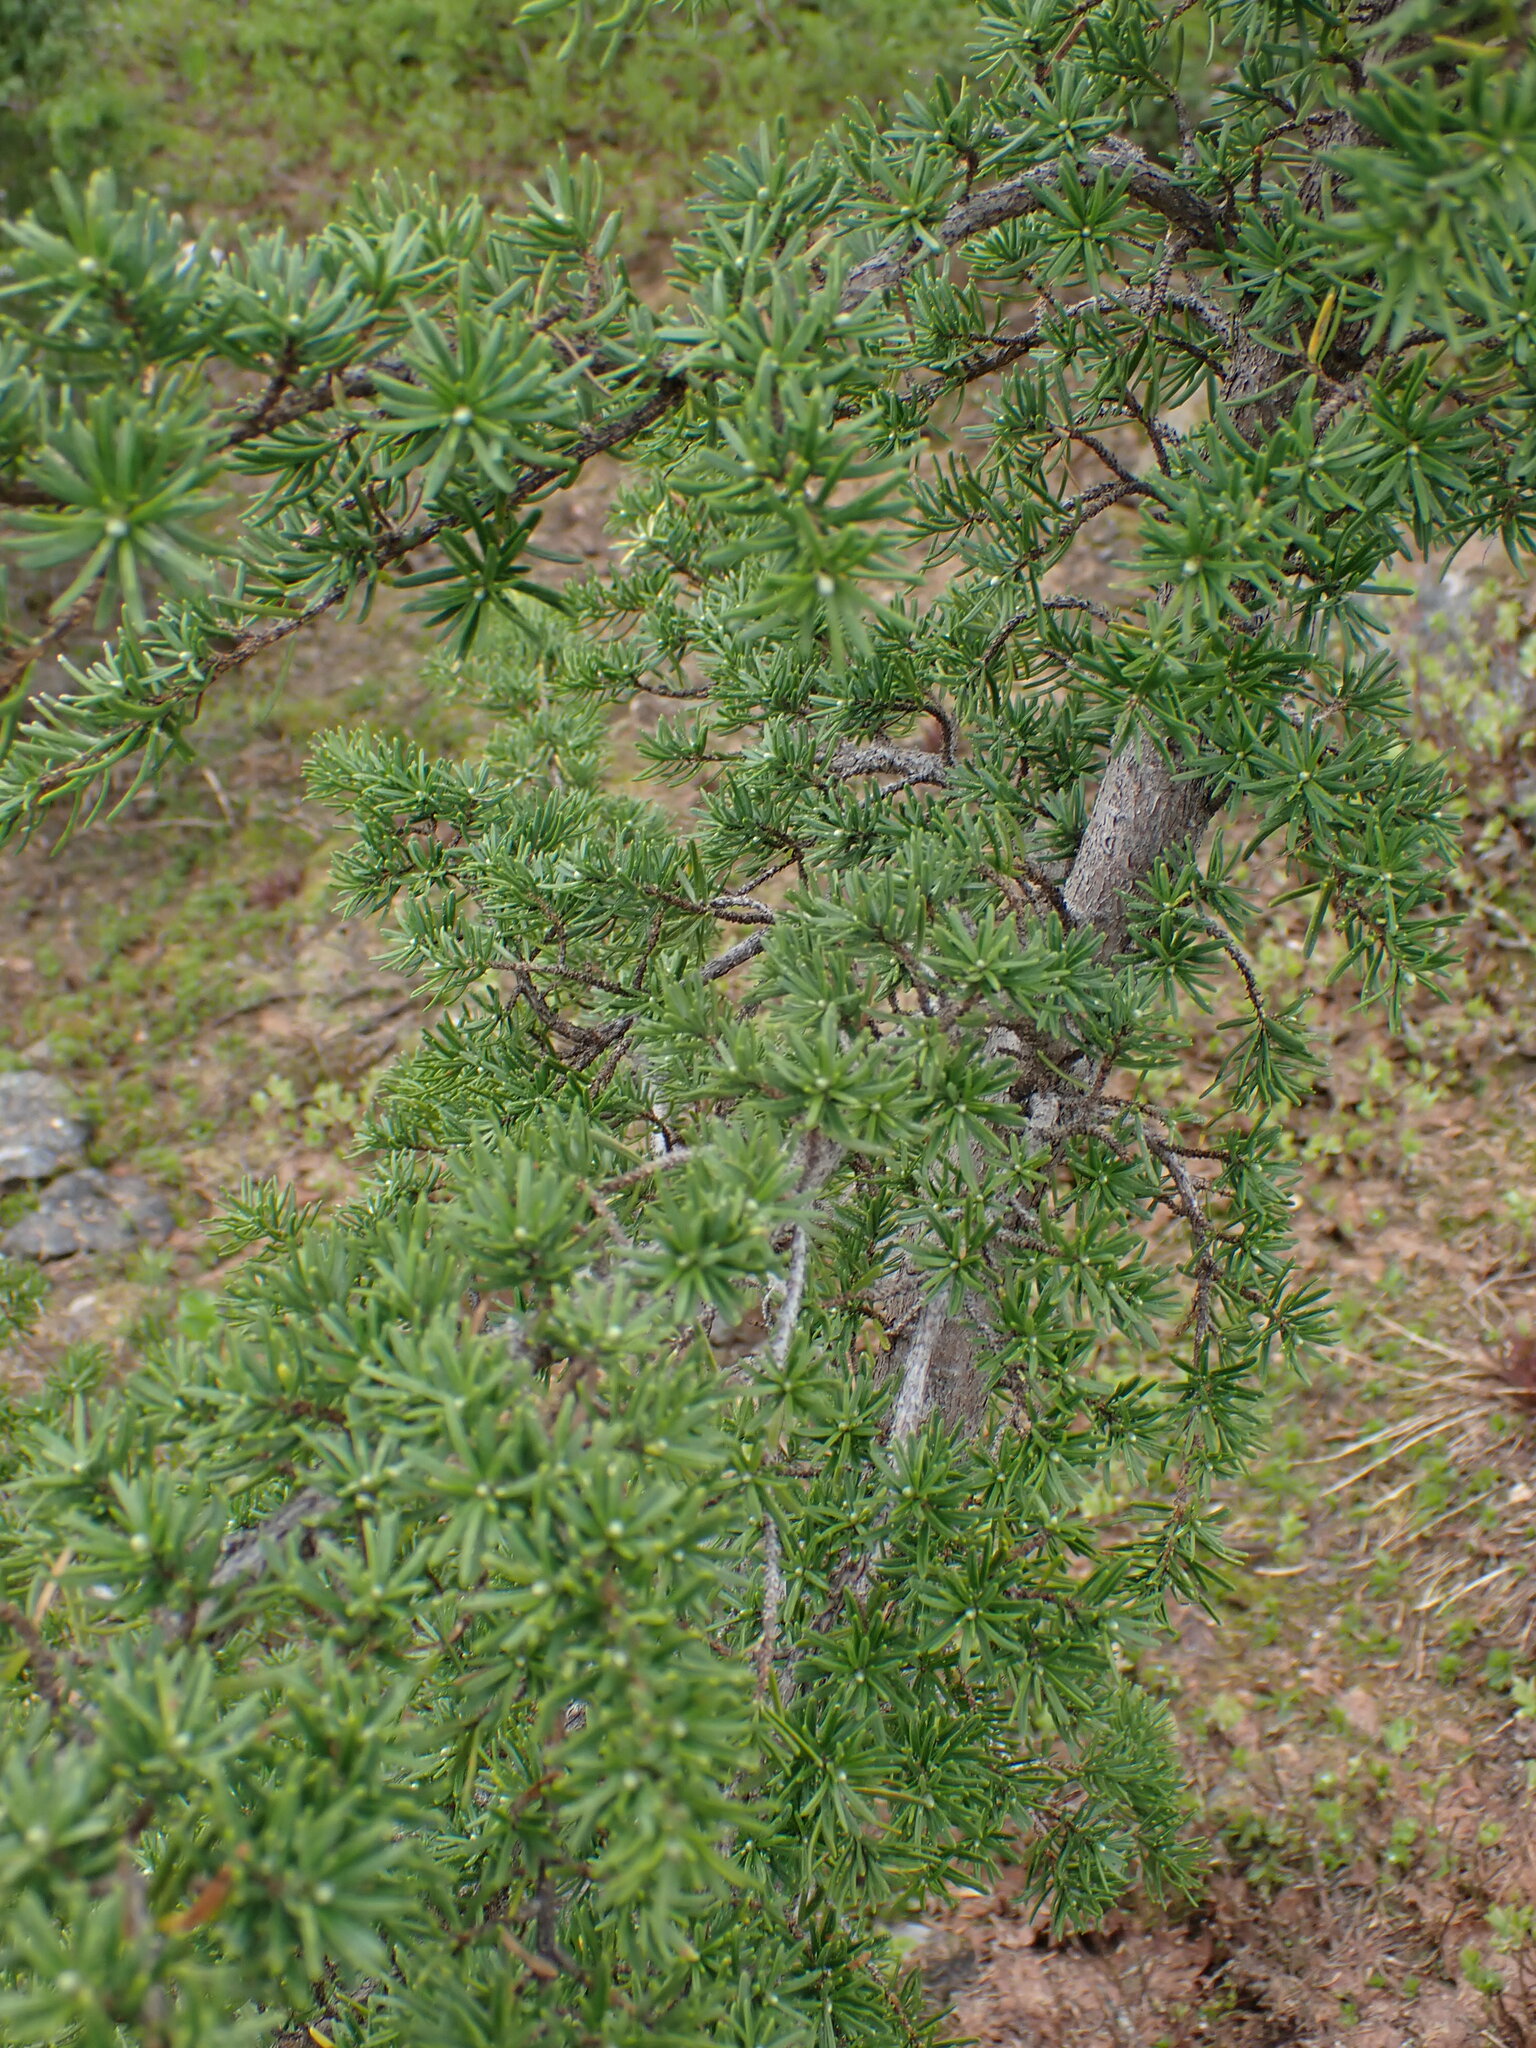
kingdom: Plantae
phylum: Tracheophyta
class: Pinopsida
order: Pinales
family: Pinaceae
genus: Tsuga
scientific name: Tsuga mertensiana
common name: Mountain hemlock
